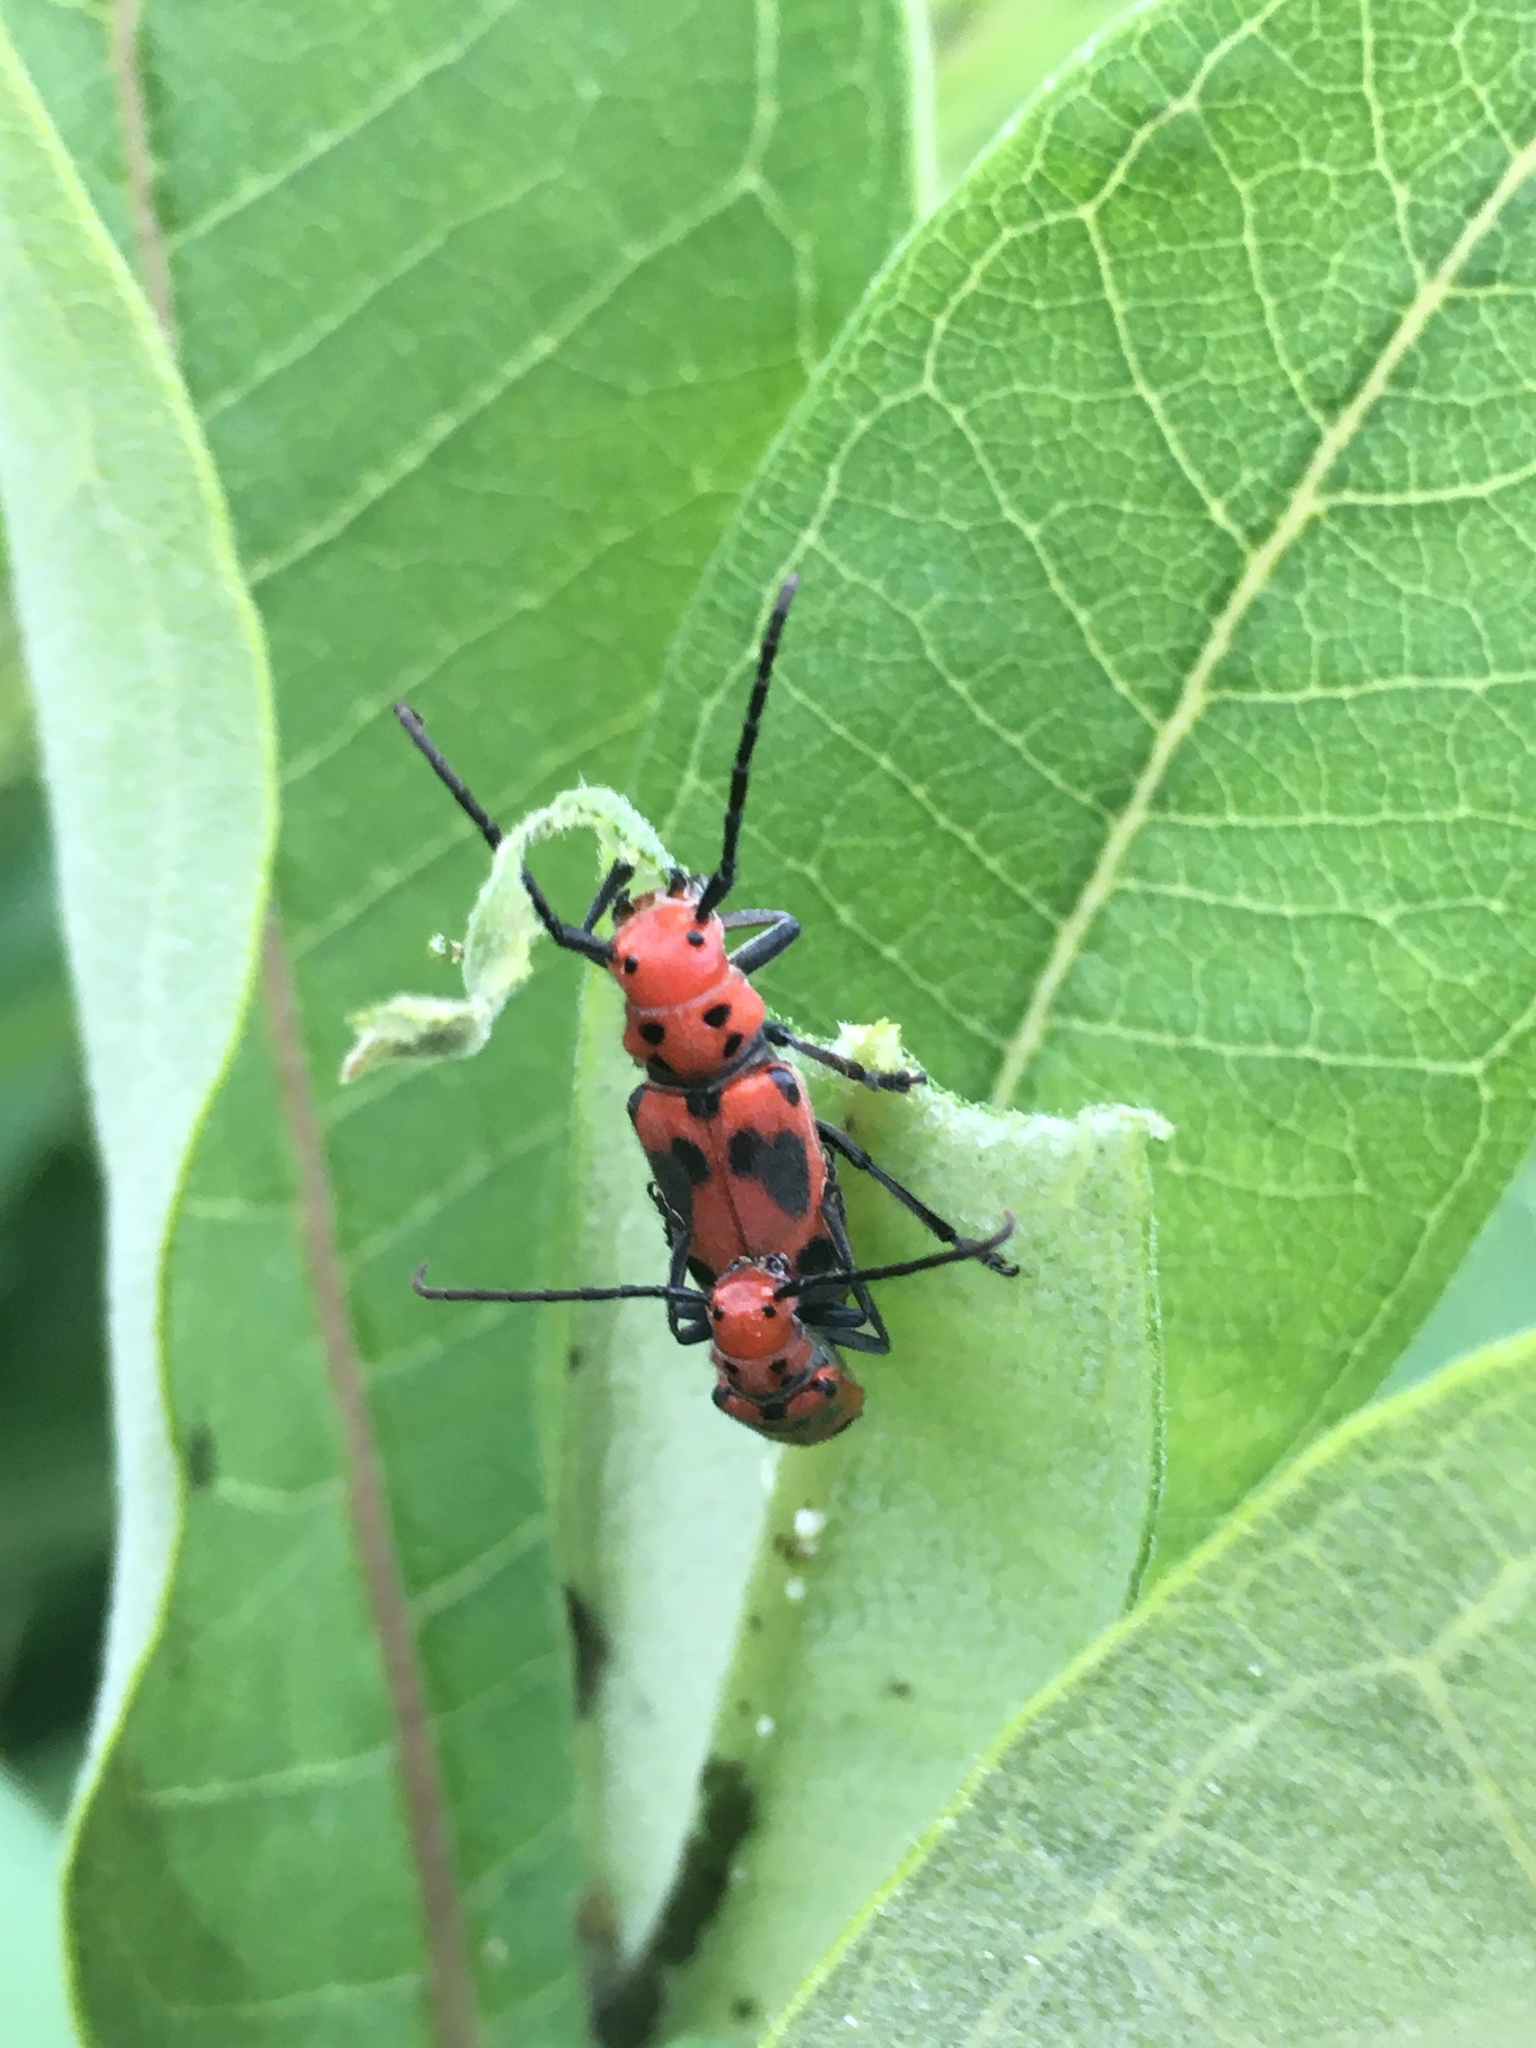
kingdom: Animalia
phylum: Arthropoda
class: Insecta
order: Coleoptera
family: Cerambycidae
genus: Tetraopes
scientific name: Tetraopes tetrophthalmus
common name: Red milkweed beetle
